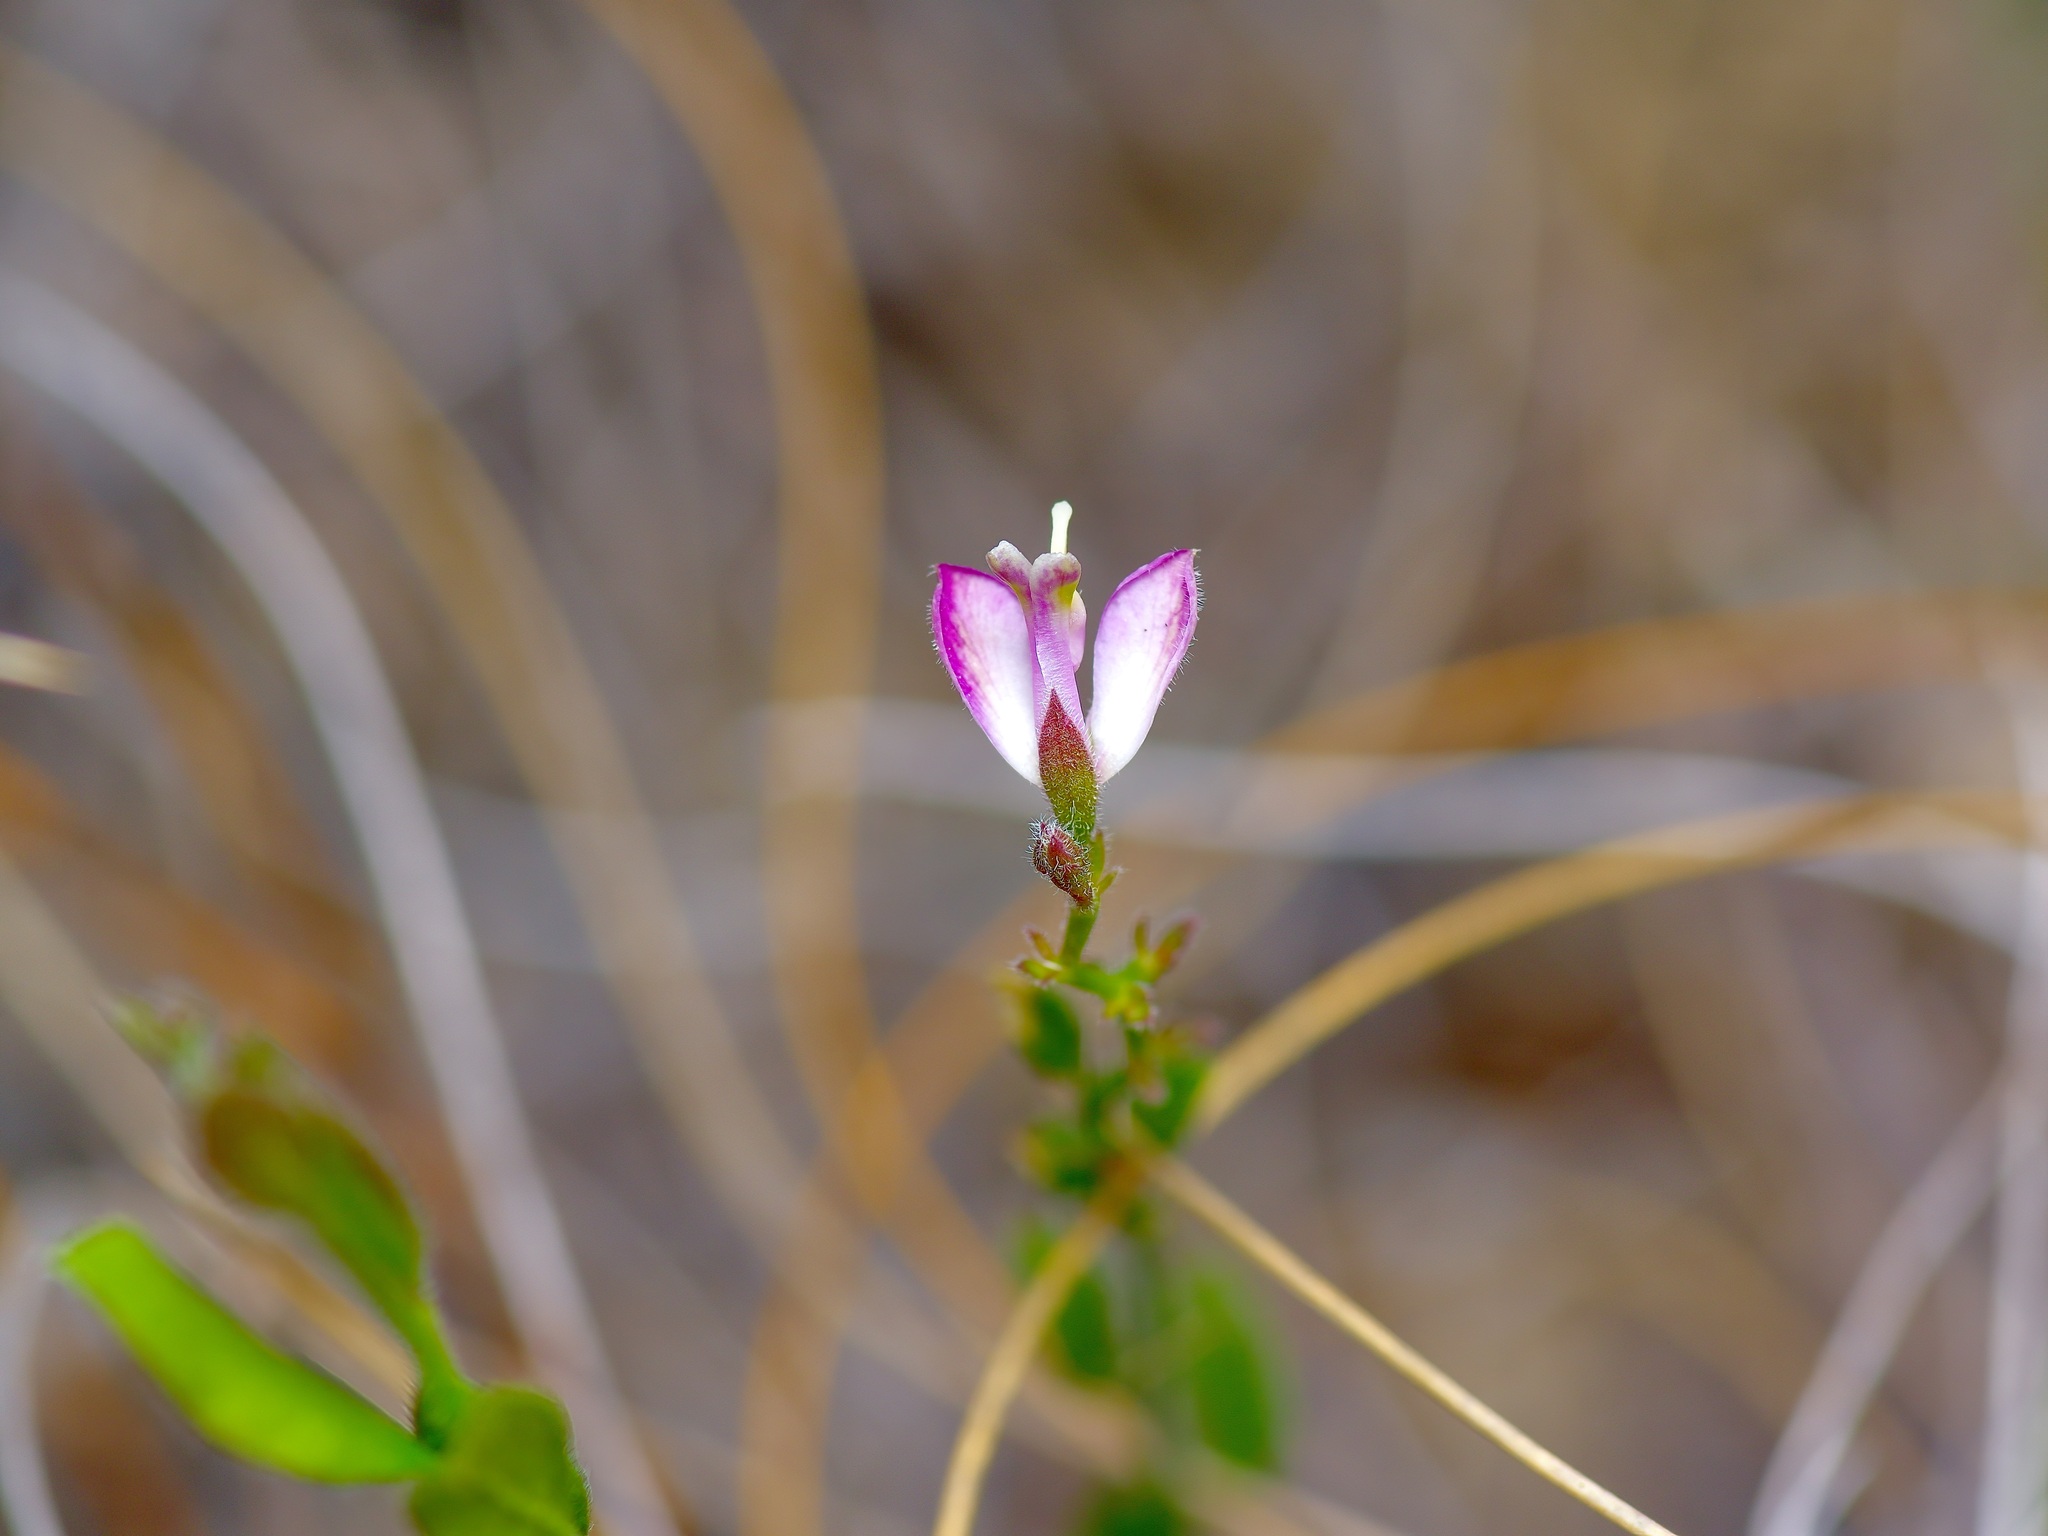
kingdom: Plantae
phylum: Tracheophyta
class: Magnoliopsida
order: Fabales
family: Polygalaceae
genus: Rhinotropis
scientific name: Rhinotropis lindheimeri
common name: Shrubby milkwort
